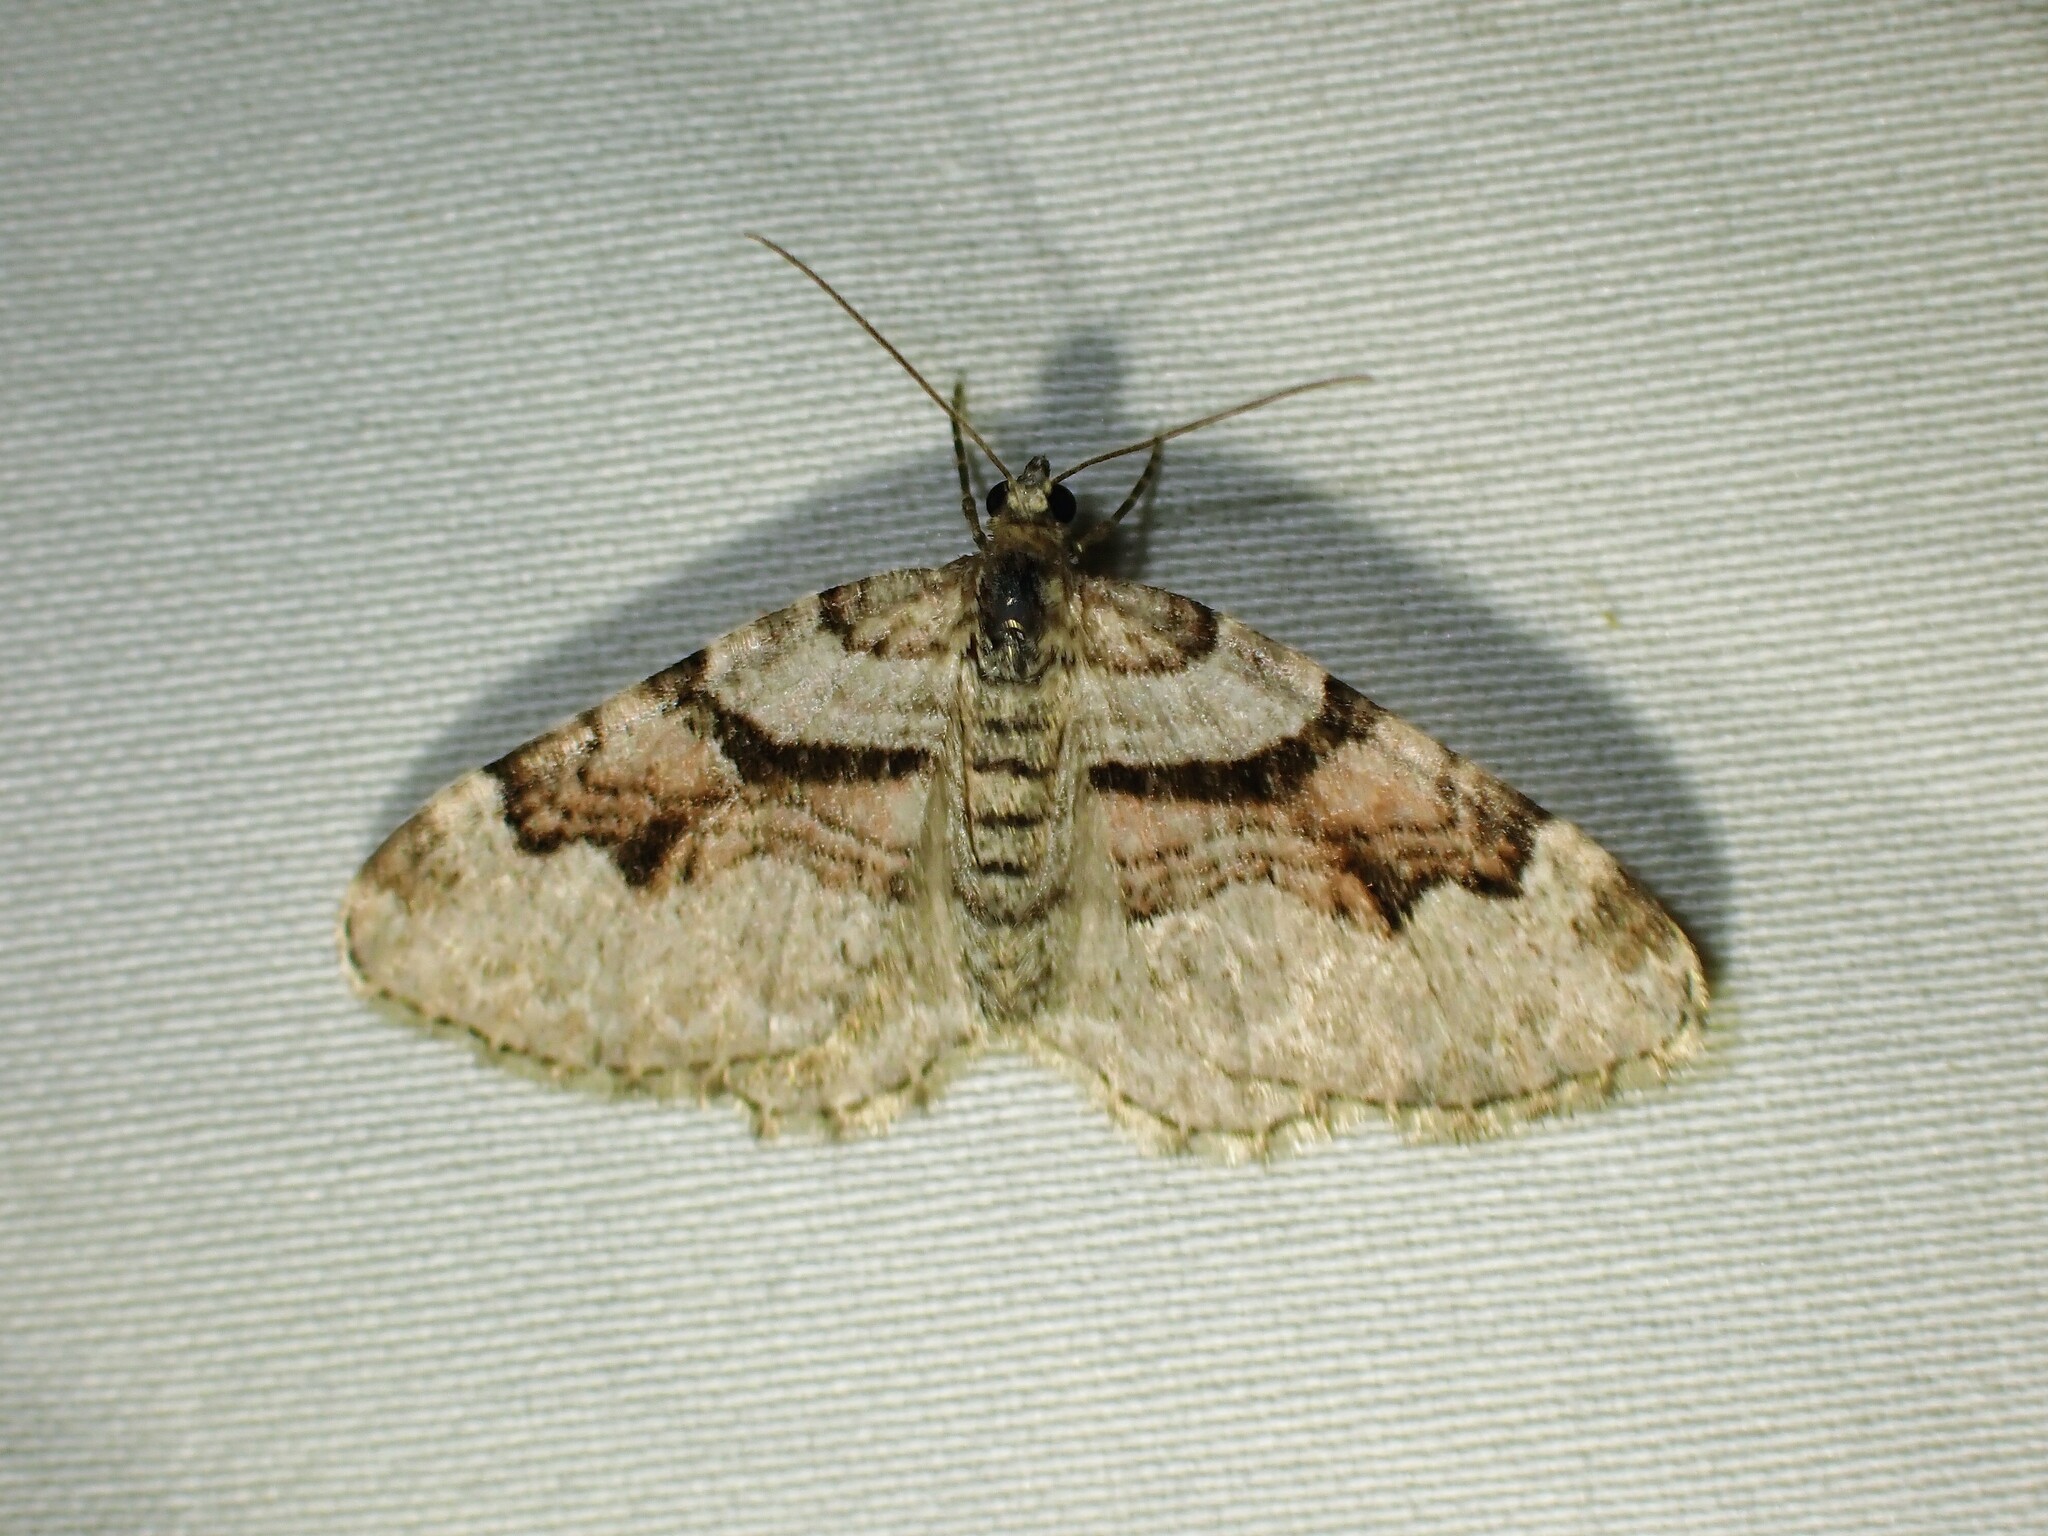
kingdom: Animalia
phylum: Arthropoda
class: Insecta
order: Lepidoptera
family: Geometridae
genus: Xanthorhoe
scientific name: Xanthorhoe labradorensis
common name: Labrador carpet
